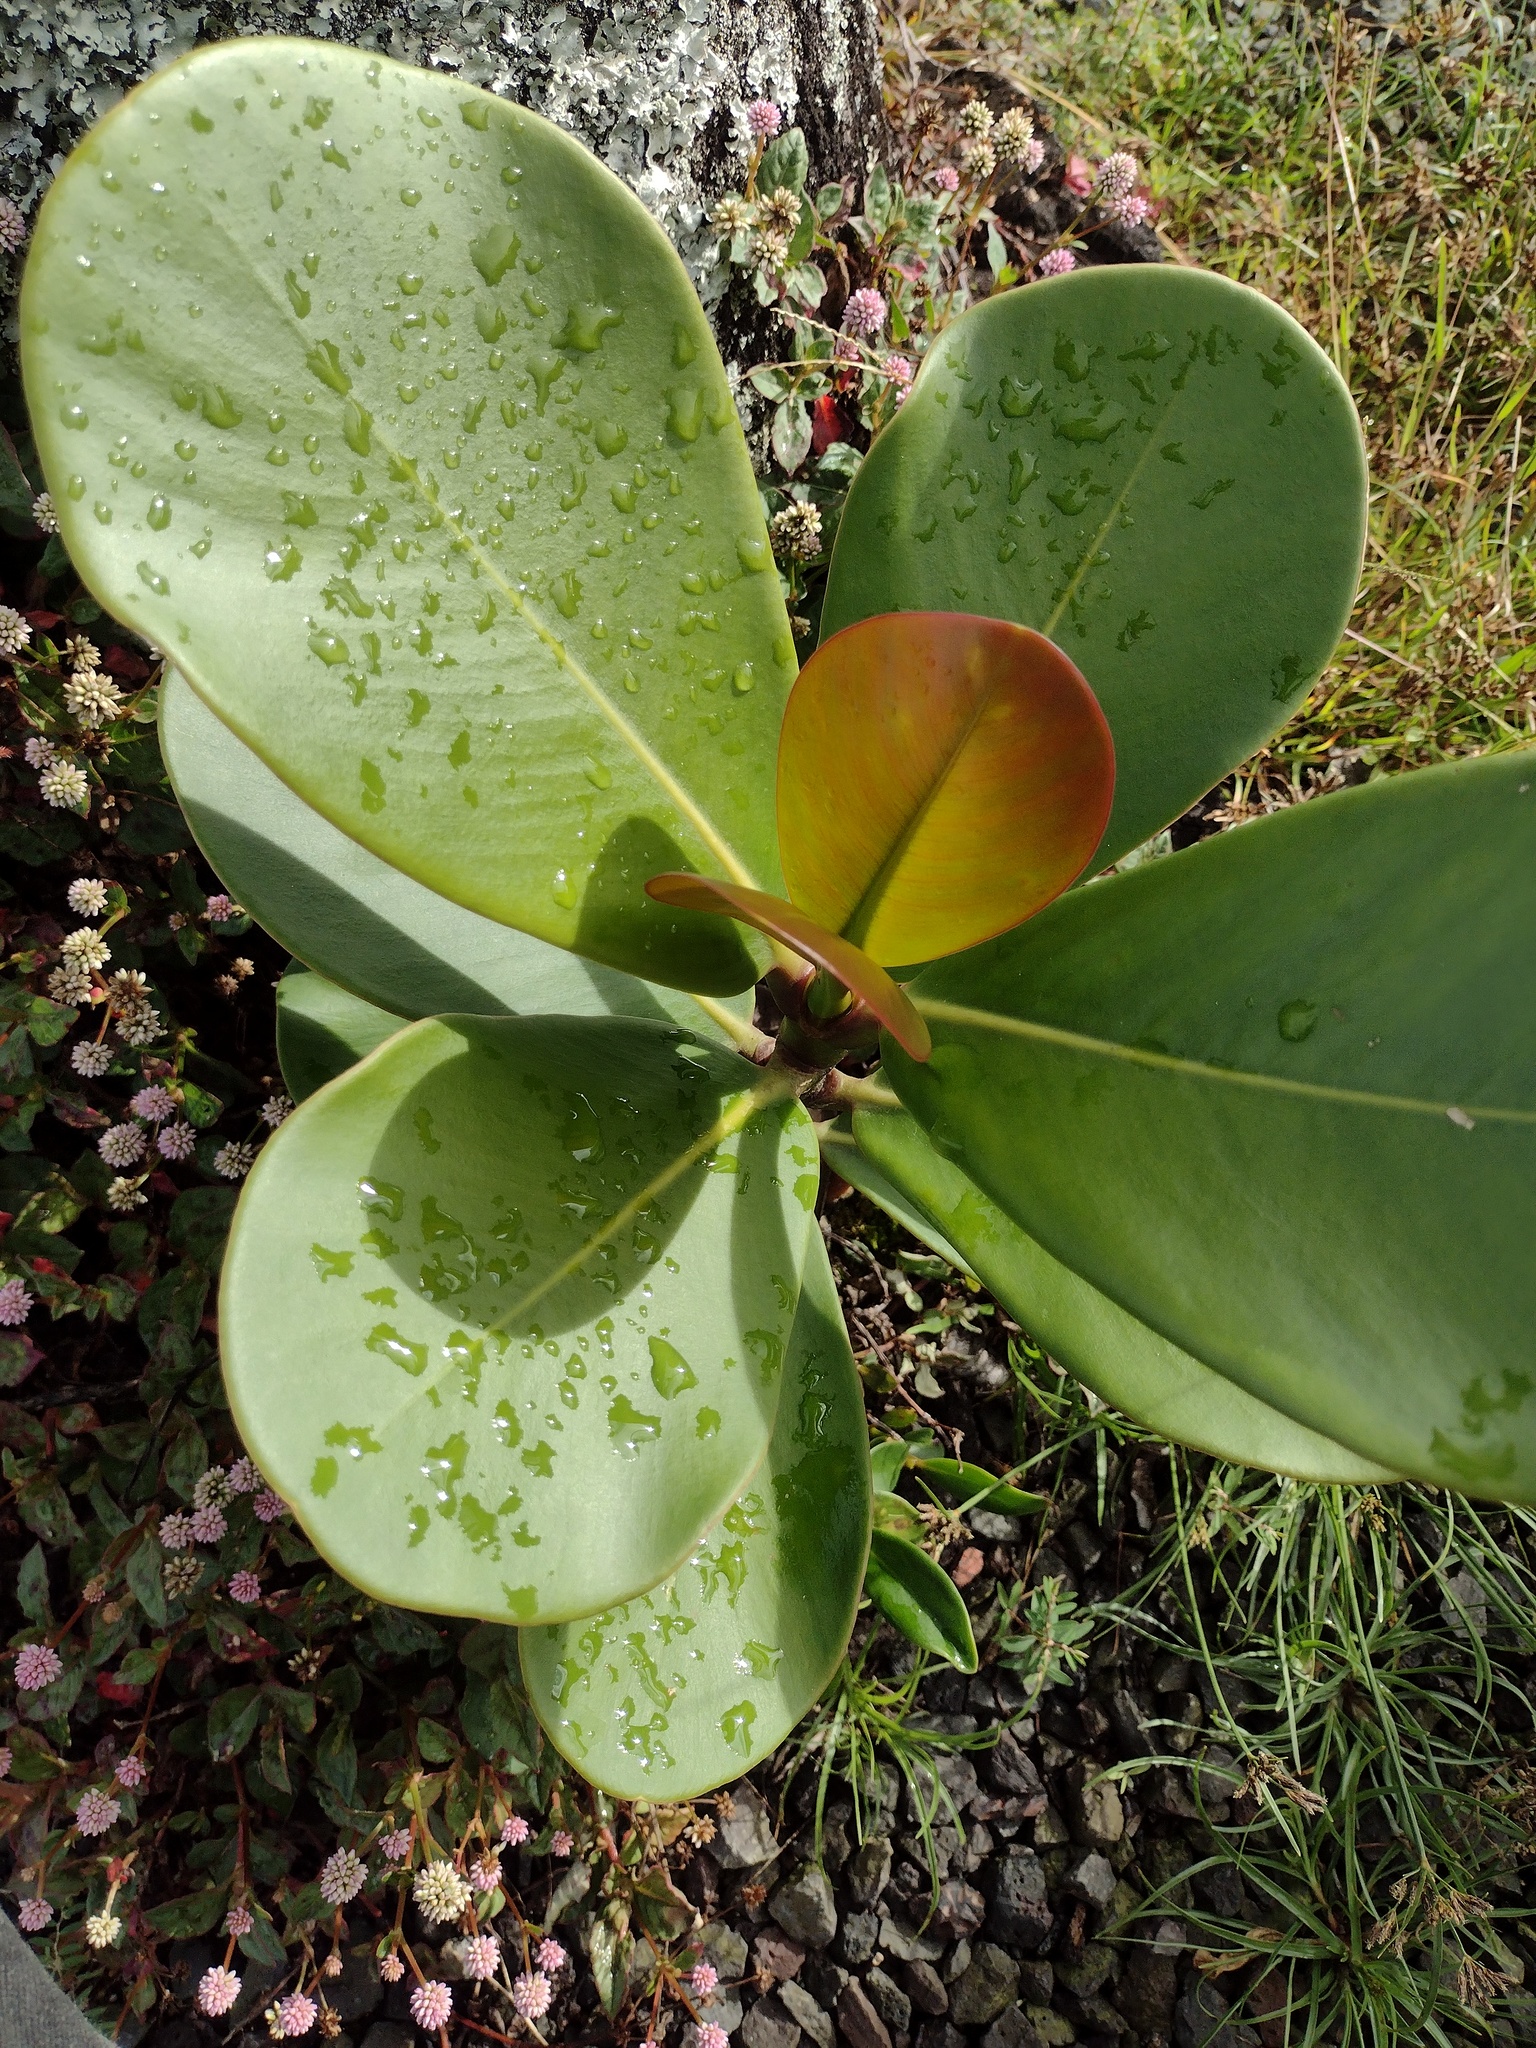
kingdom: Plantae
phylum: Tracheophyta
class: Magnoliopsida
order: Malpighiales
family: Clusiaceae
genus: Clusia
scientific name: Clusia rosea
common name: Scotch attorney
